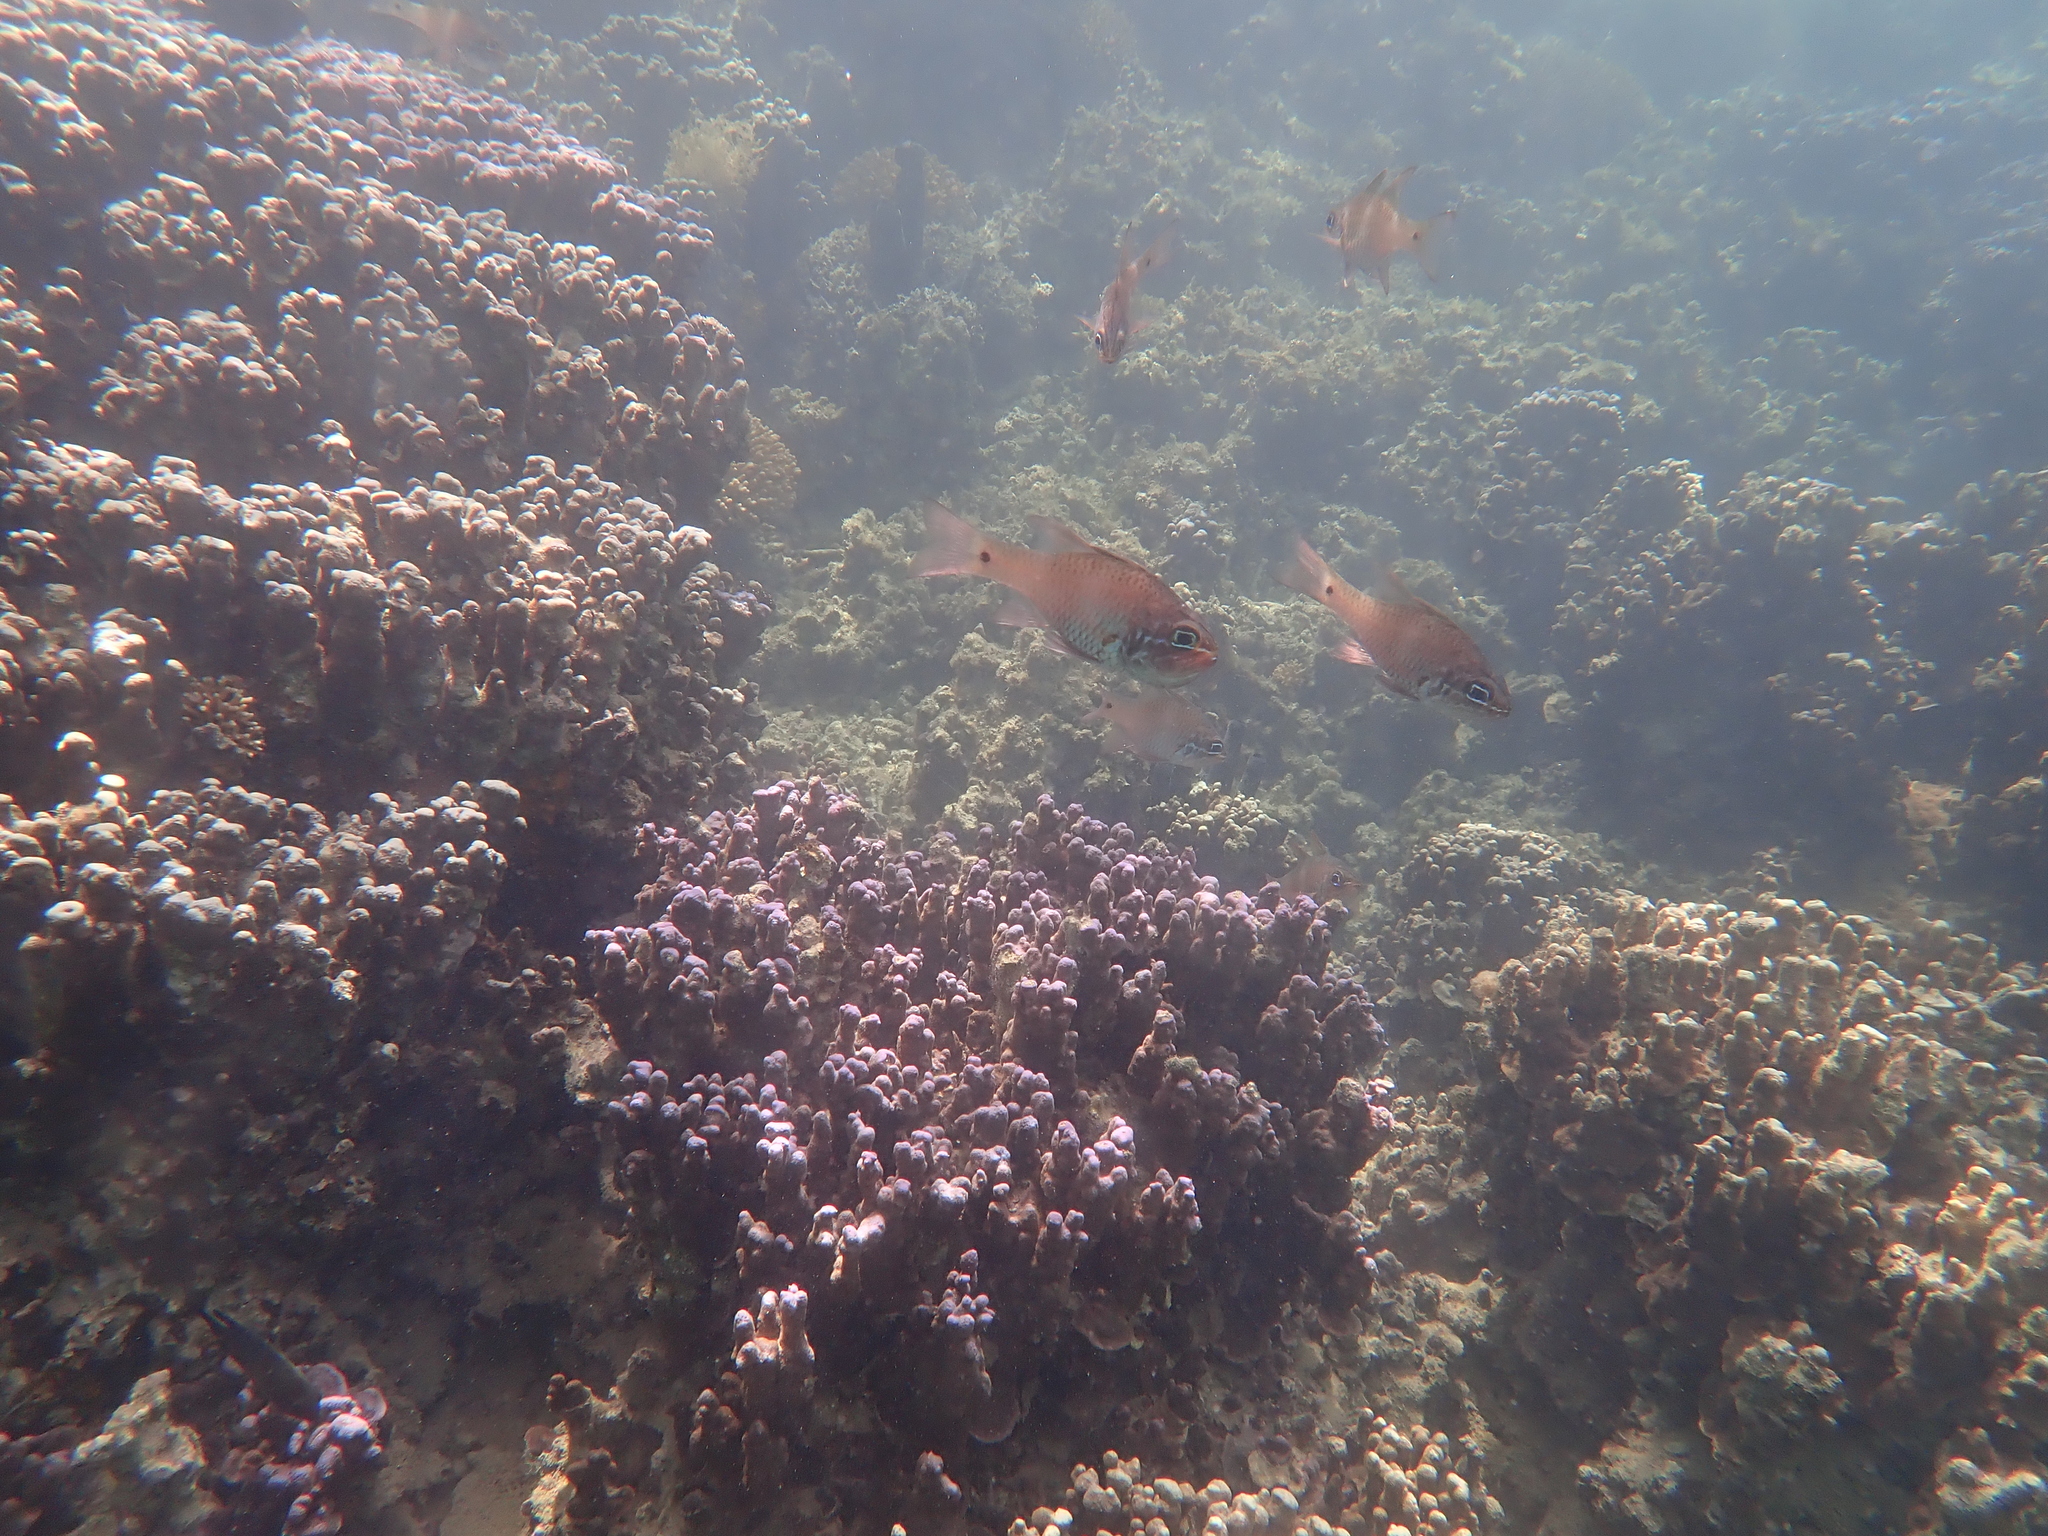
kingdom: Animalia
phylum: Chordata
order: Perciformes
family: Apogonidae
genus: Ostorhinchus
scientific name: Ostorhinchus norfolcensis
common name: Norfolk cardinalfish
